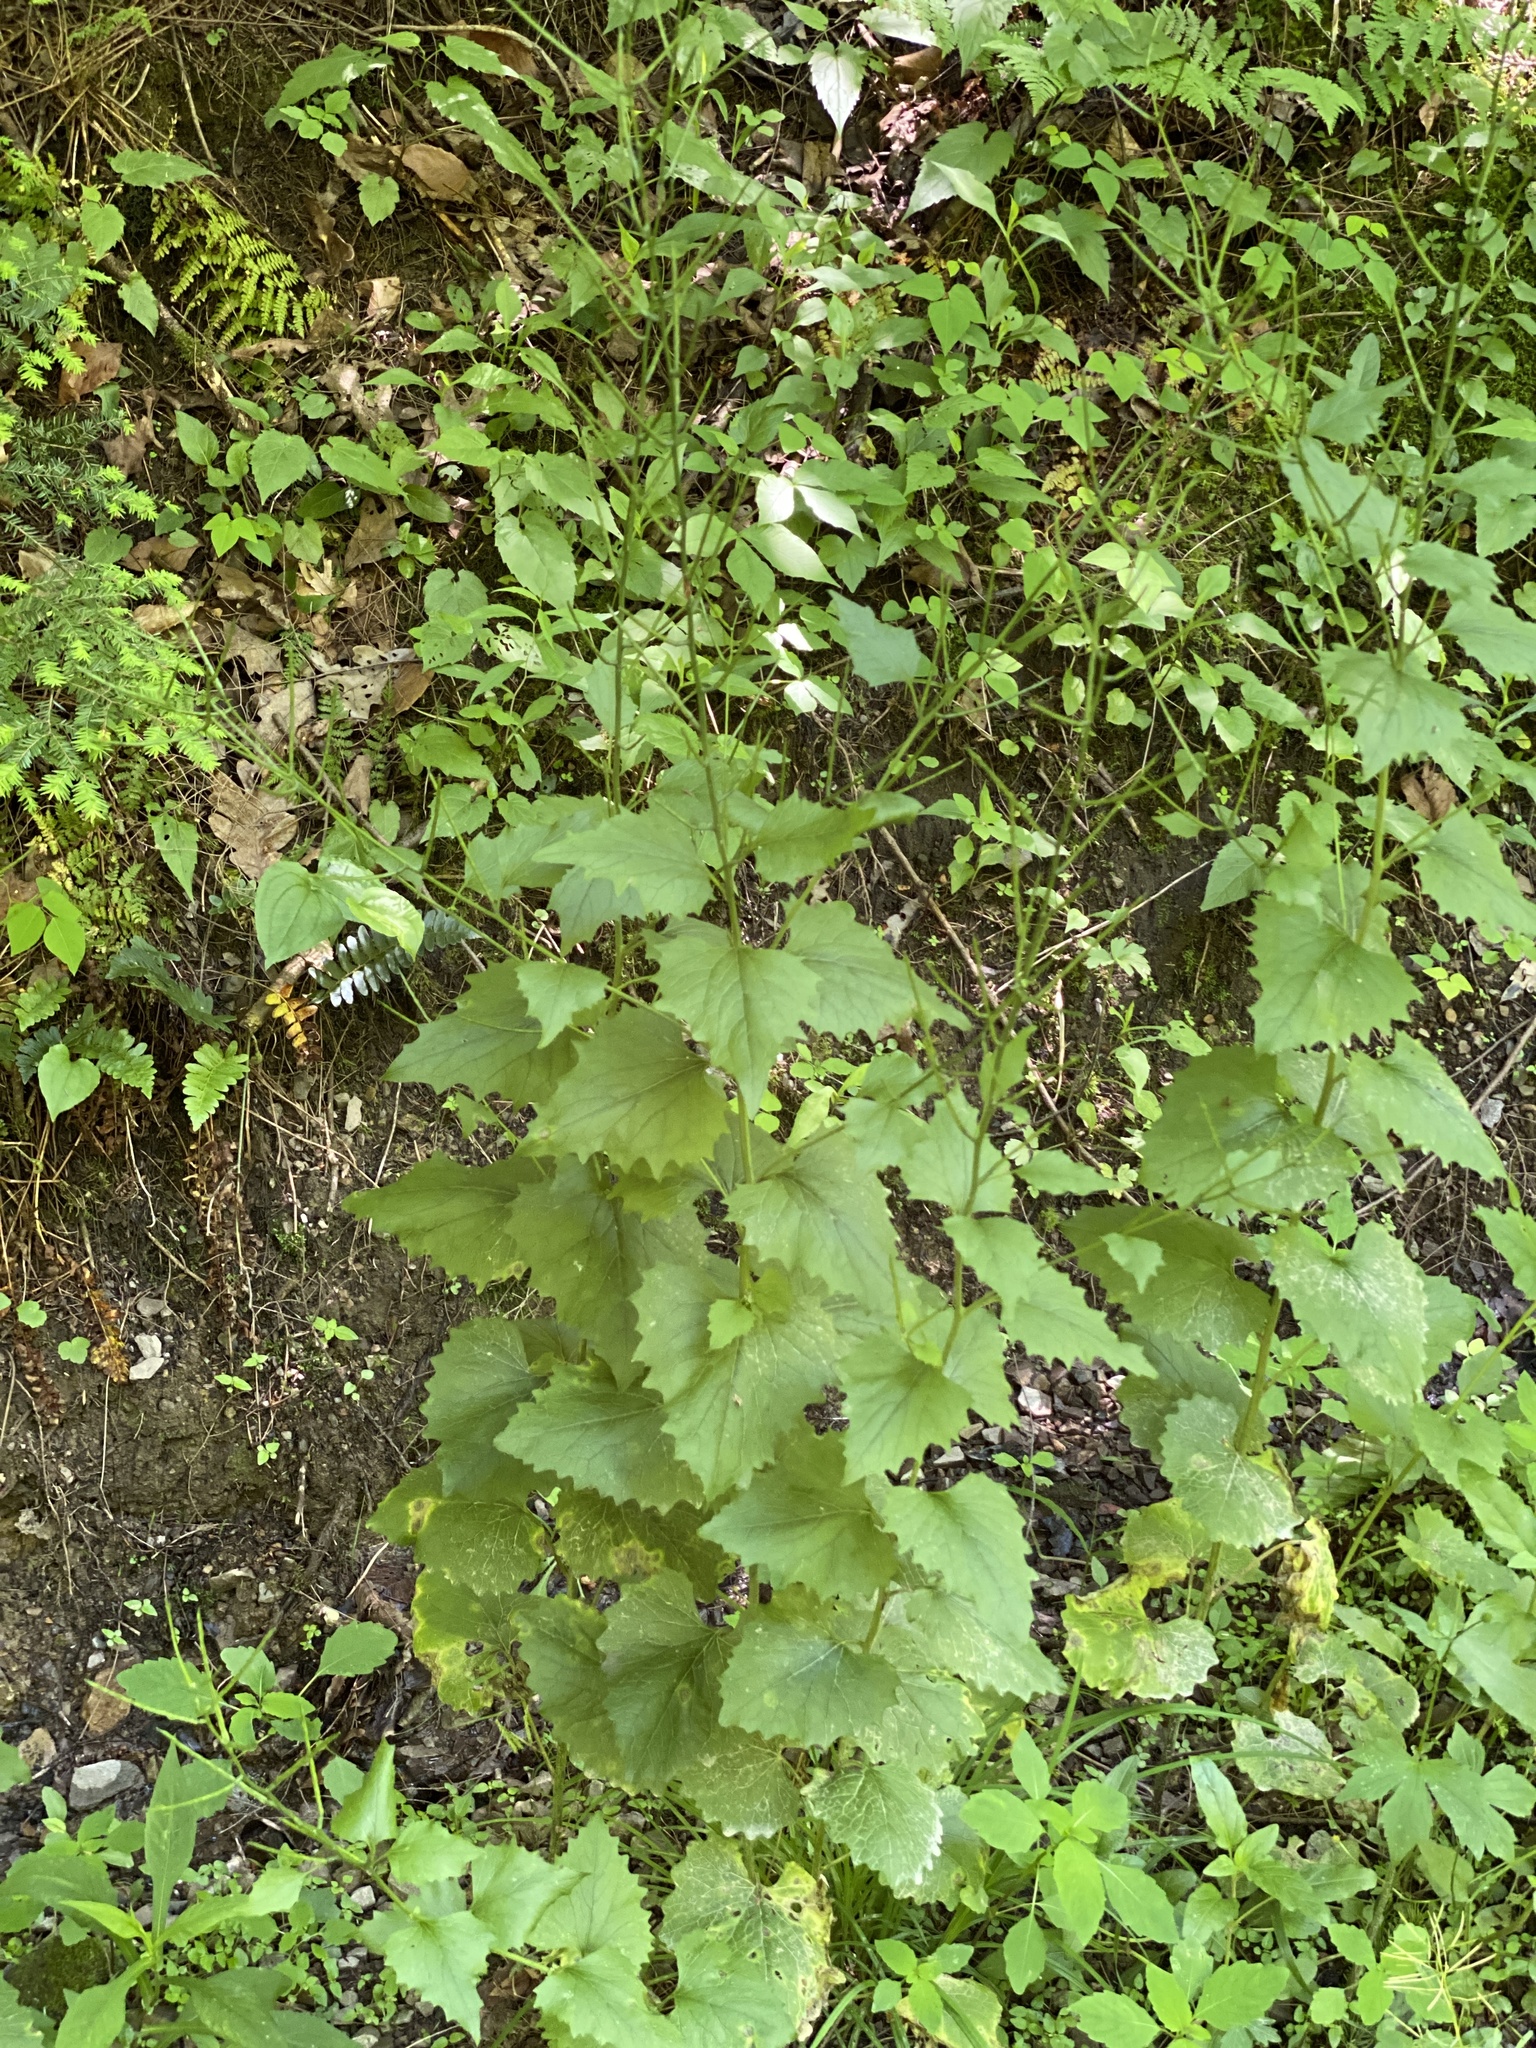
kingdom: Plantae
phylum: Tracheophyta
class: Magnoliopsida
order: Brassicales
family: Brassicaceae
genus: Alliaria
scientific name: Alliaria petiolata
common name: Garlic mustard
